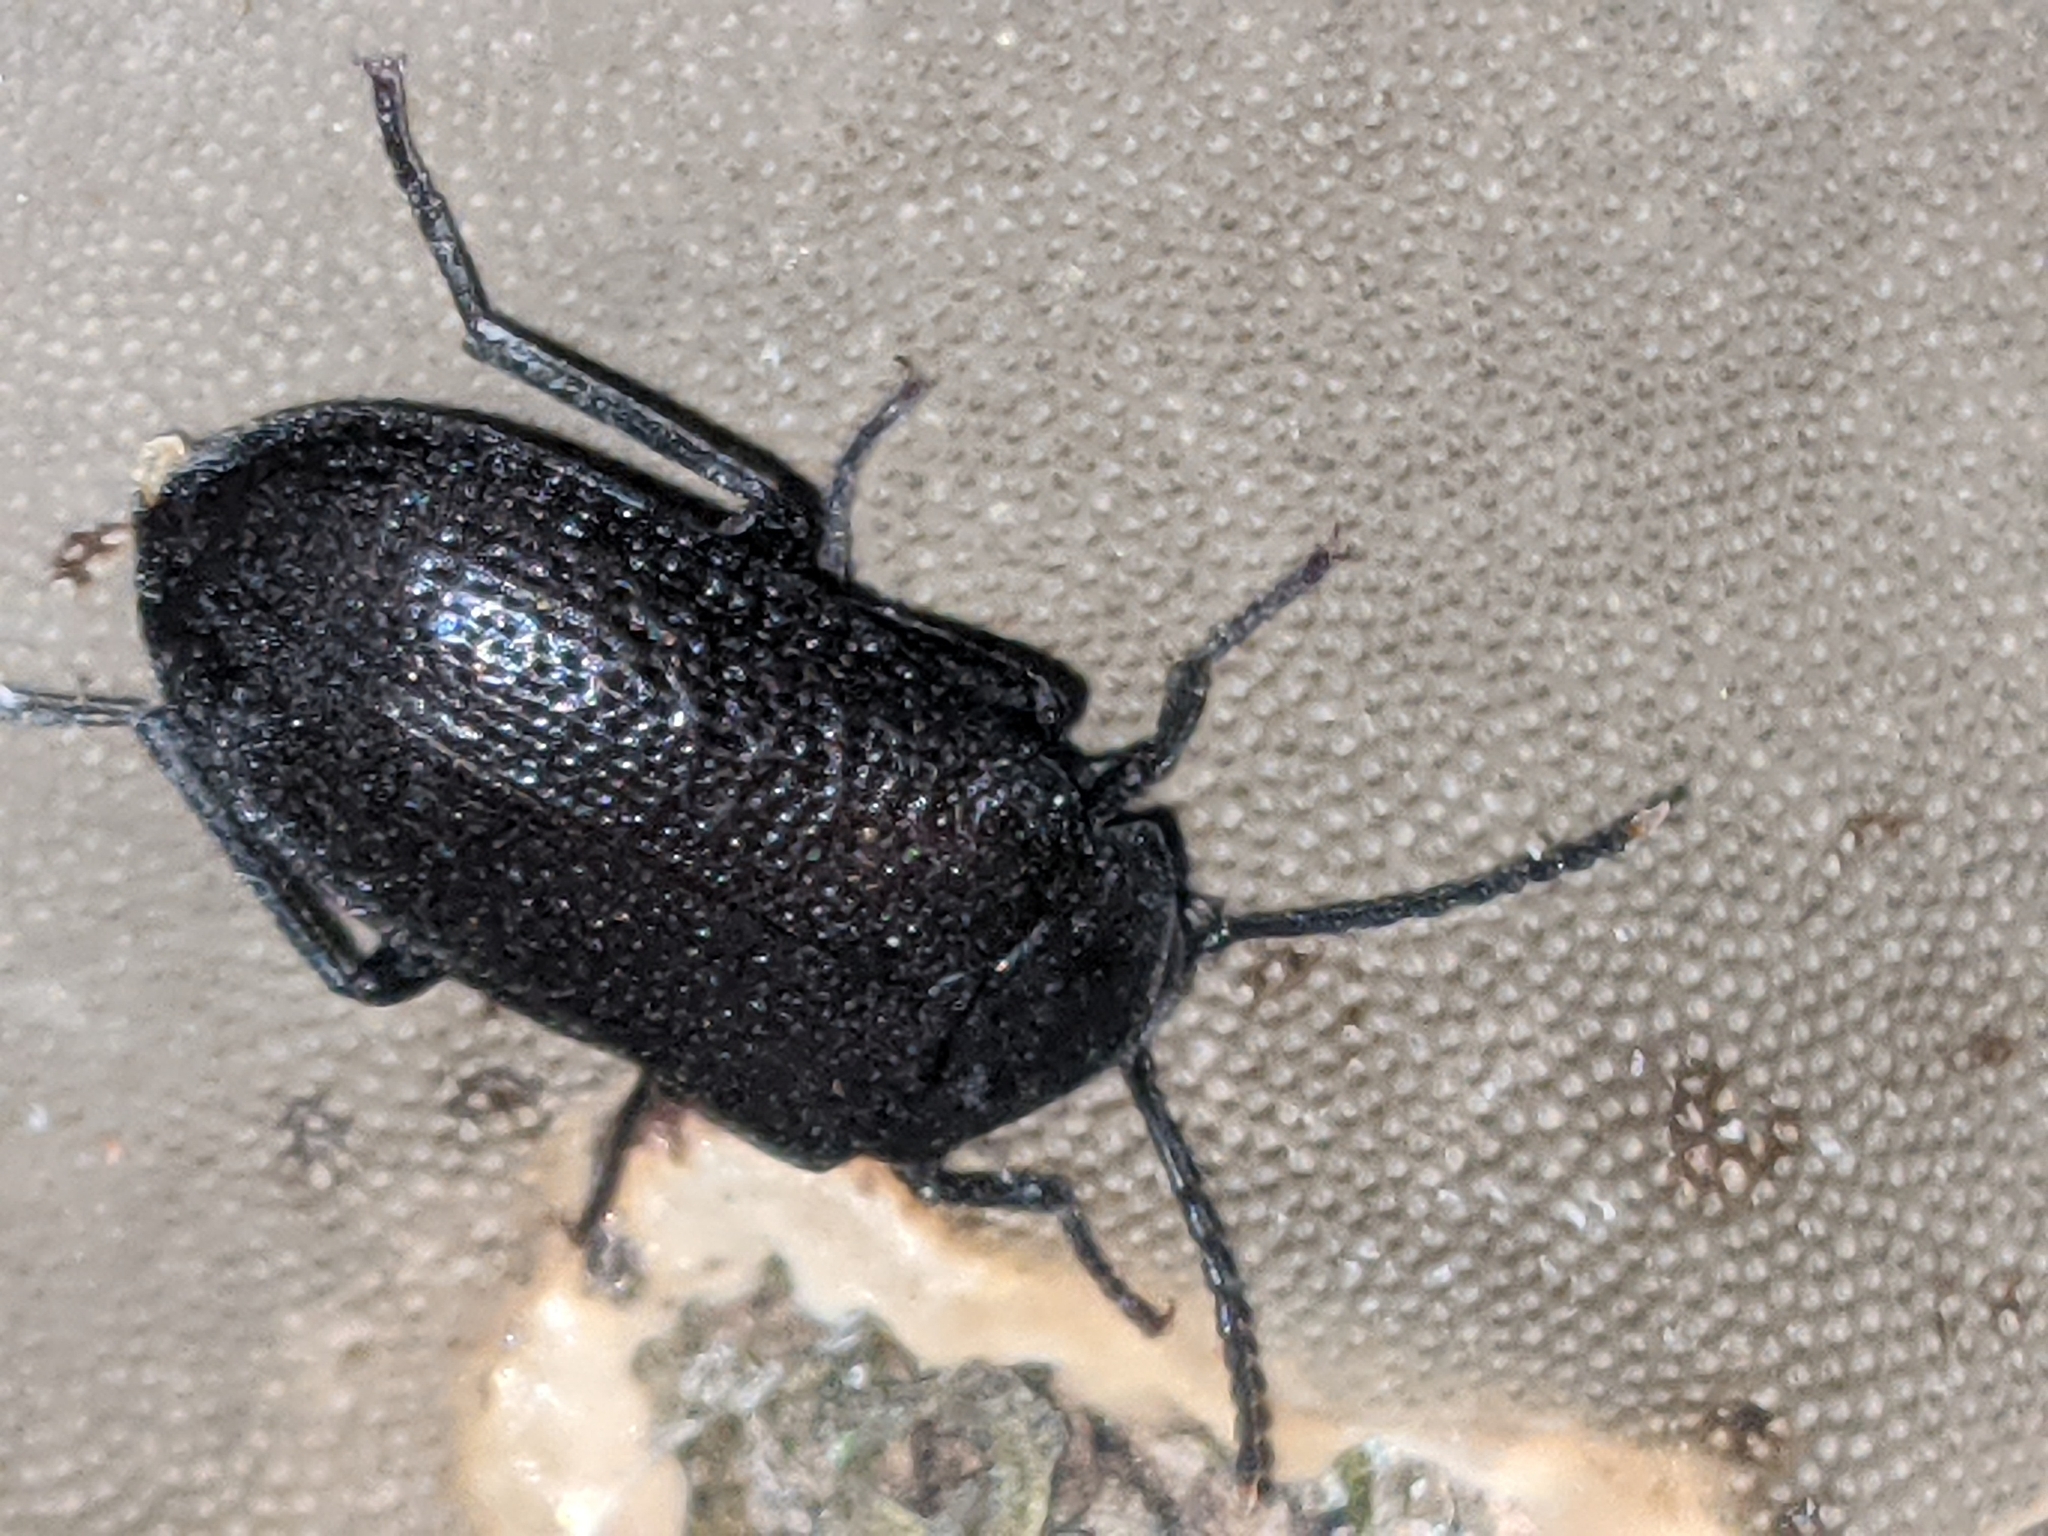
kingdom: Animalia
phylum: Arthropoda
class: Insecta
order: Coleoptera
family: Tetratomidae
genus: Penthe
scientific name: Penthe pimelia
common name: Velvety bark beetle
